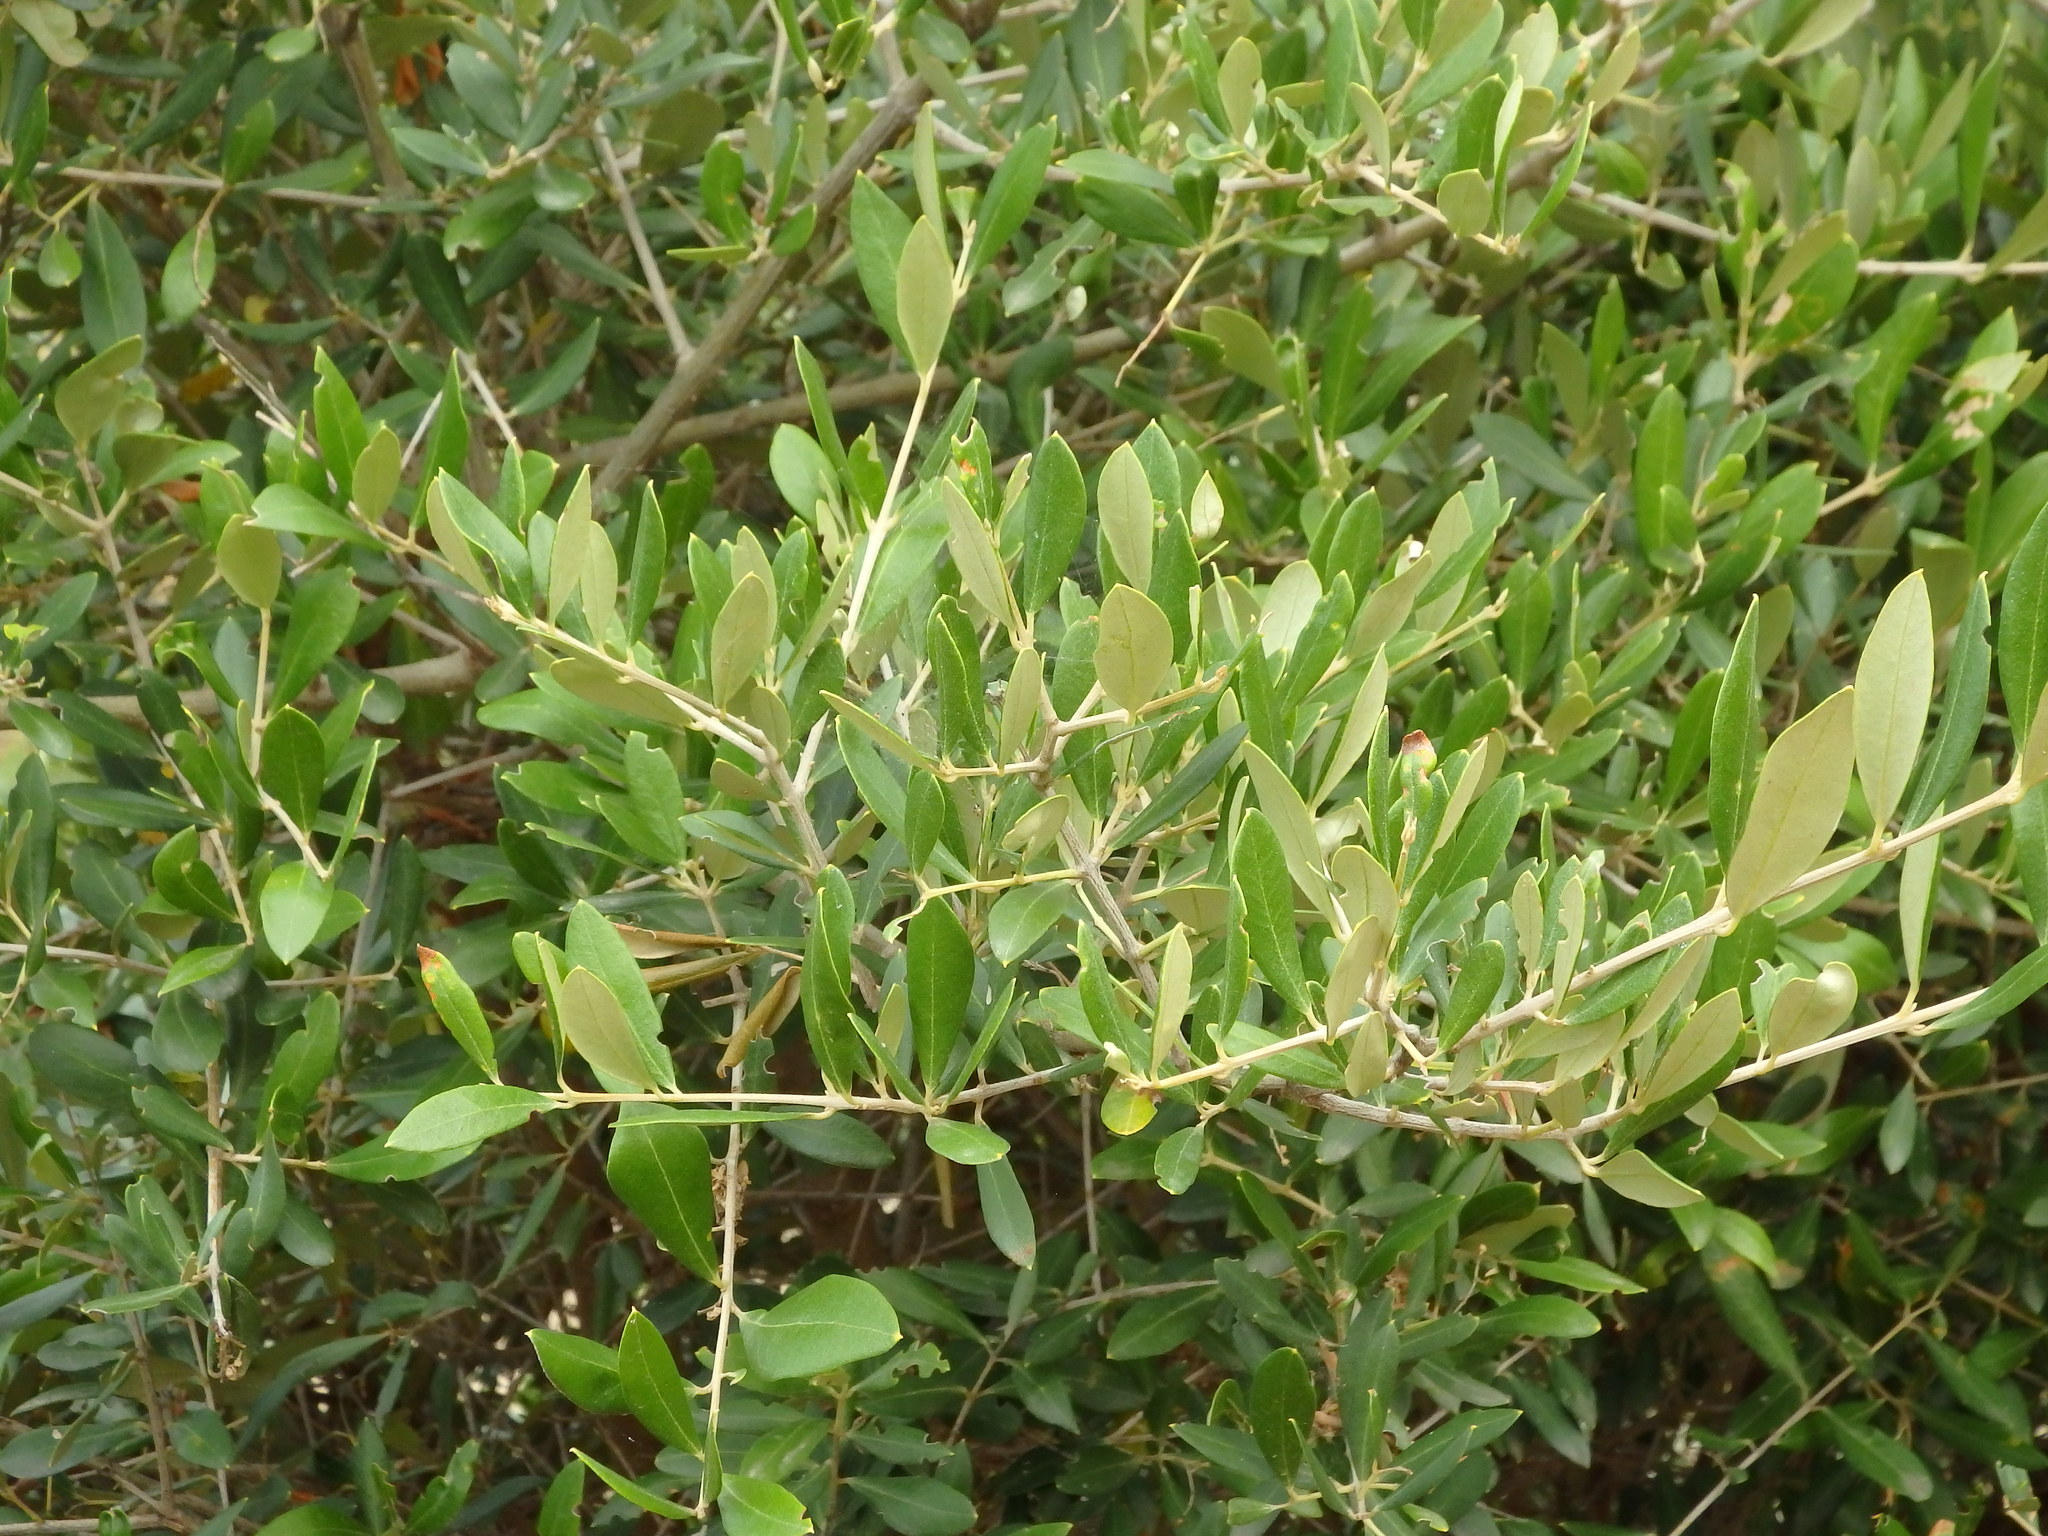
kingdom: Plantae
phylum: Tracheophyta
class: Magnoliopsida
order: Lamiales
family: Oleaceae
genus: Olea
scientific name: Olea europaea
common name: Olive
